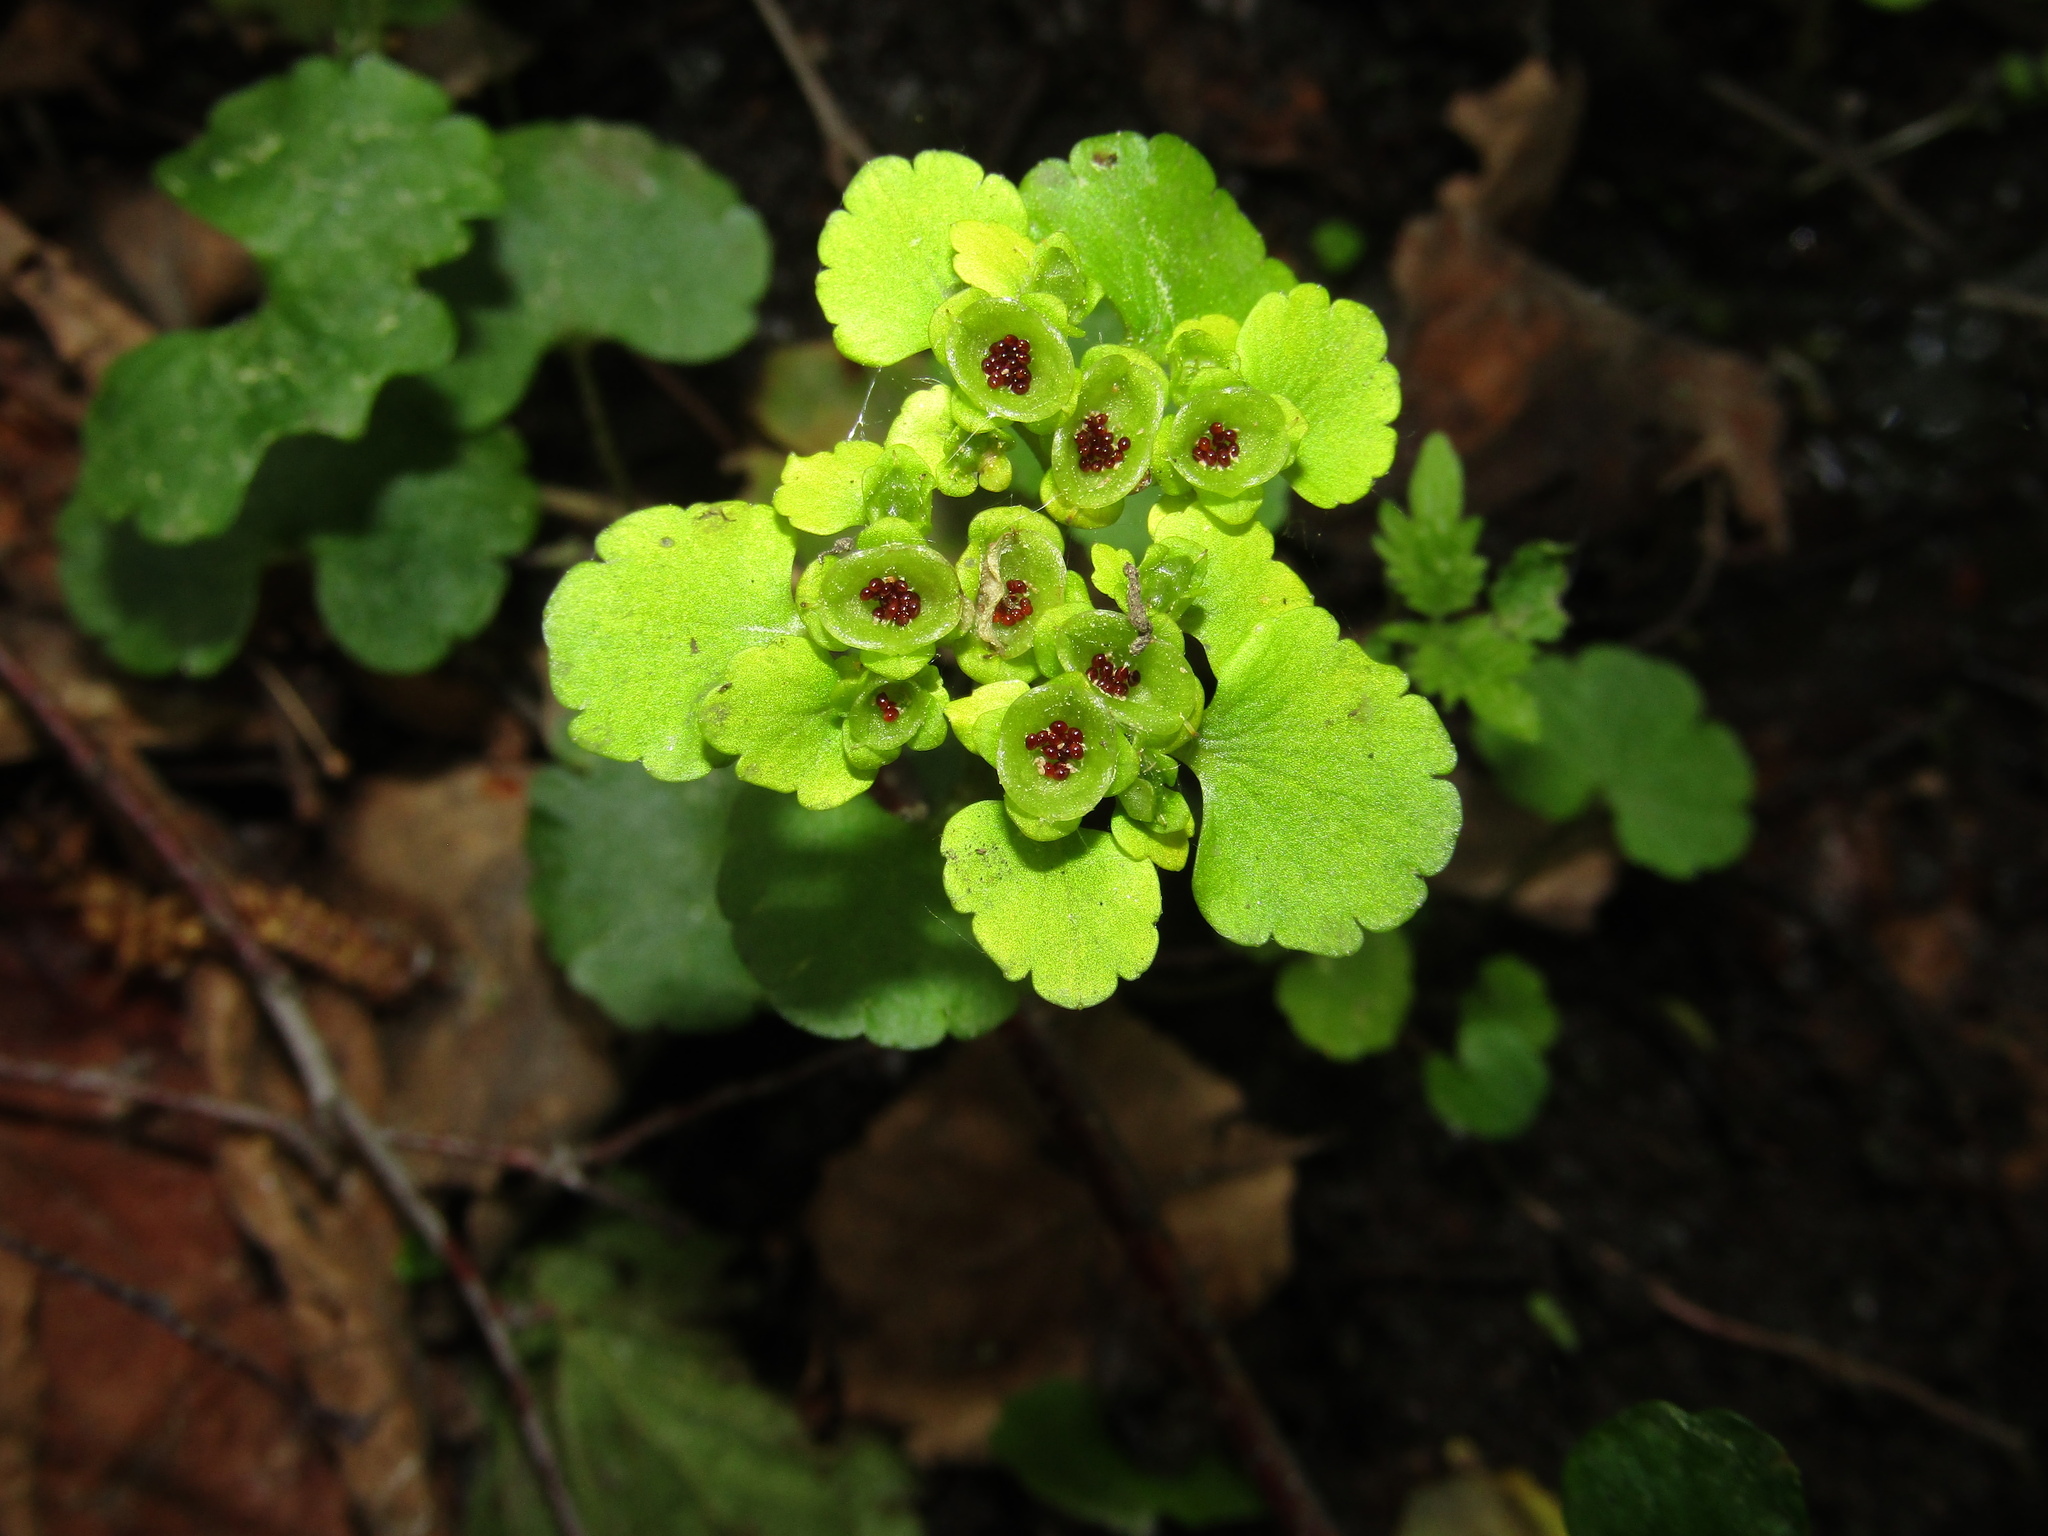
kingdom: Plantae
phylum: Tracheophyta
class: Magnoliopsida
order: Saxifragales
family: Saxifragaceae
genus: Chrysosplenium
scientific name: Chrysosplenium alternifolium
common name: Alternate-leaved golden-saxifrage
